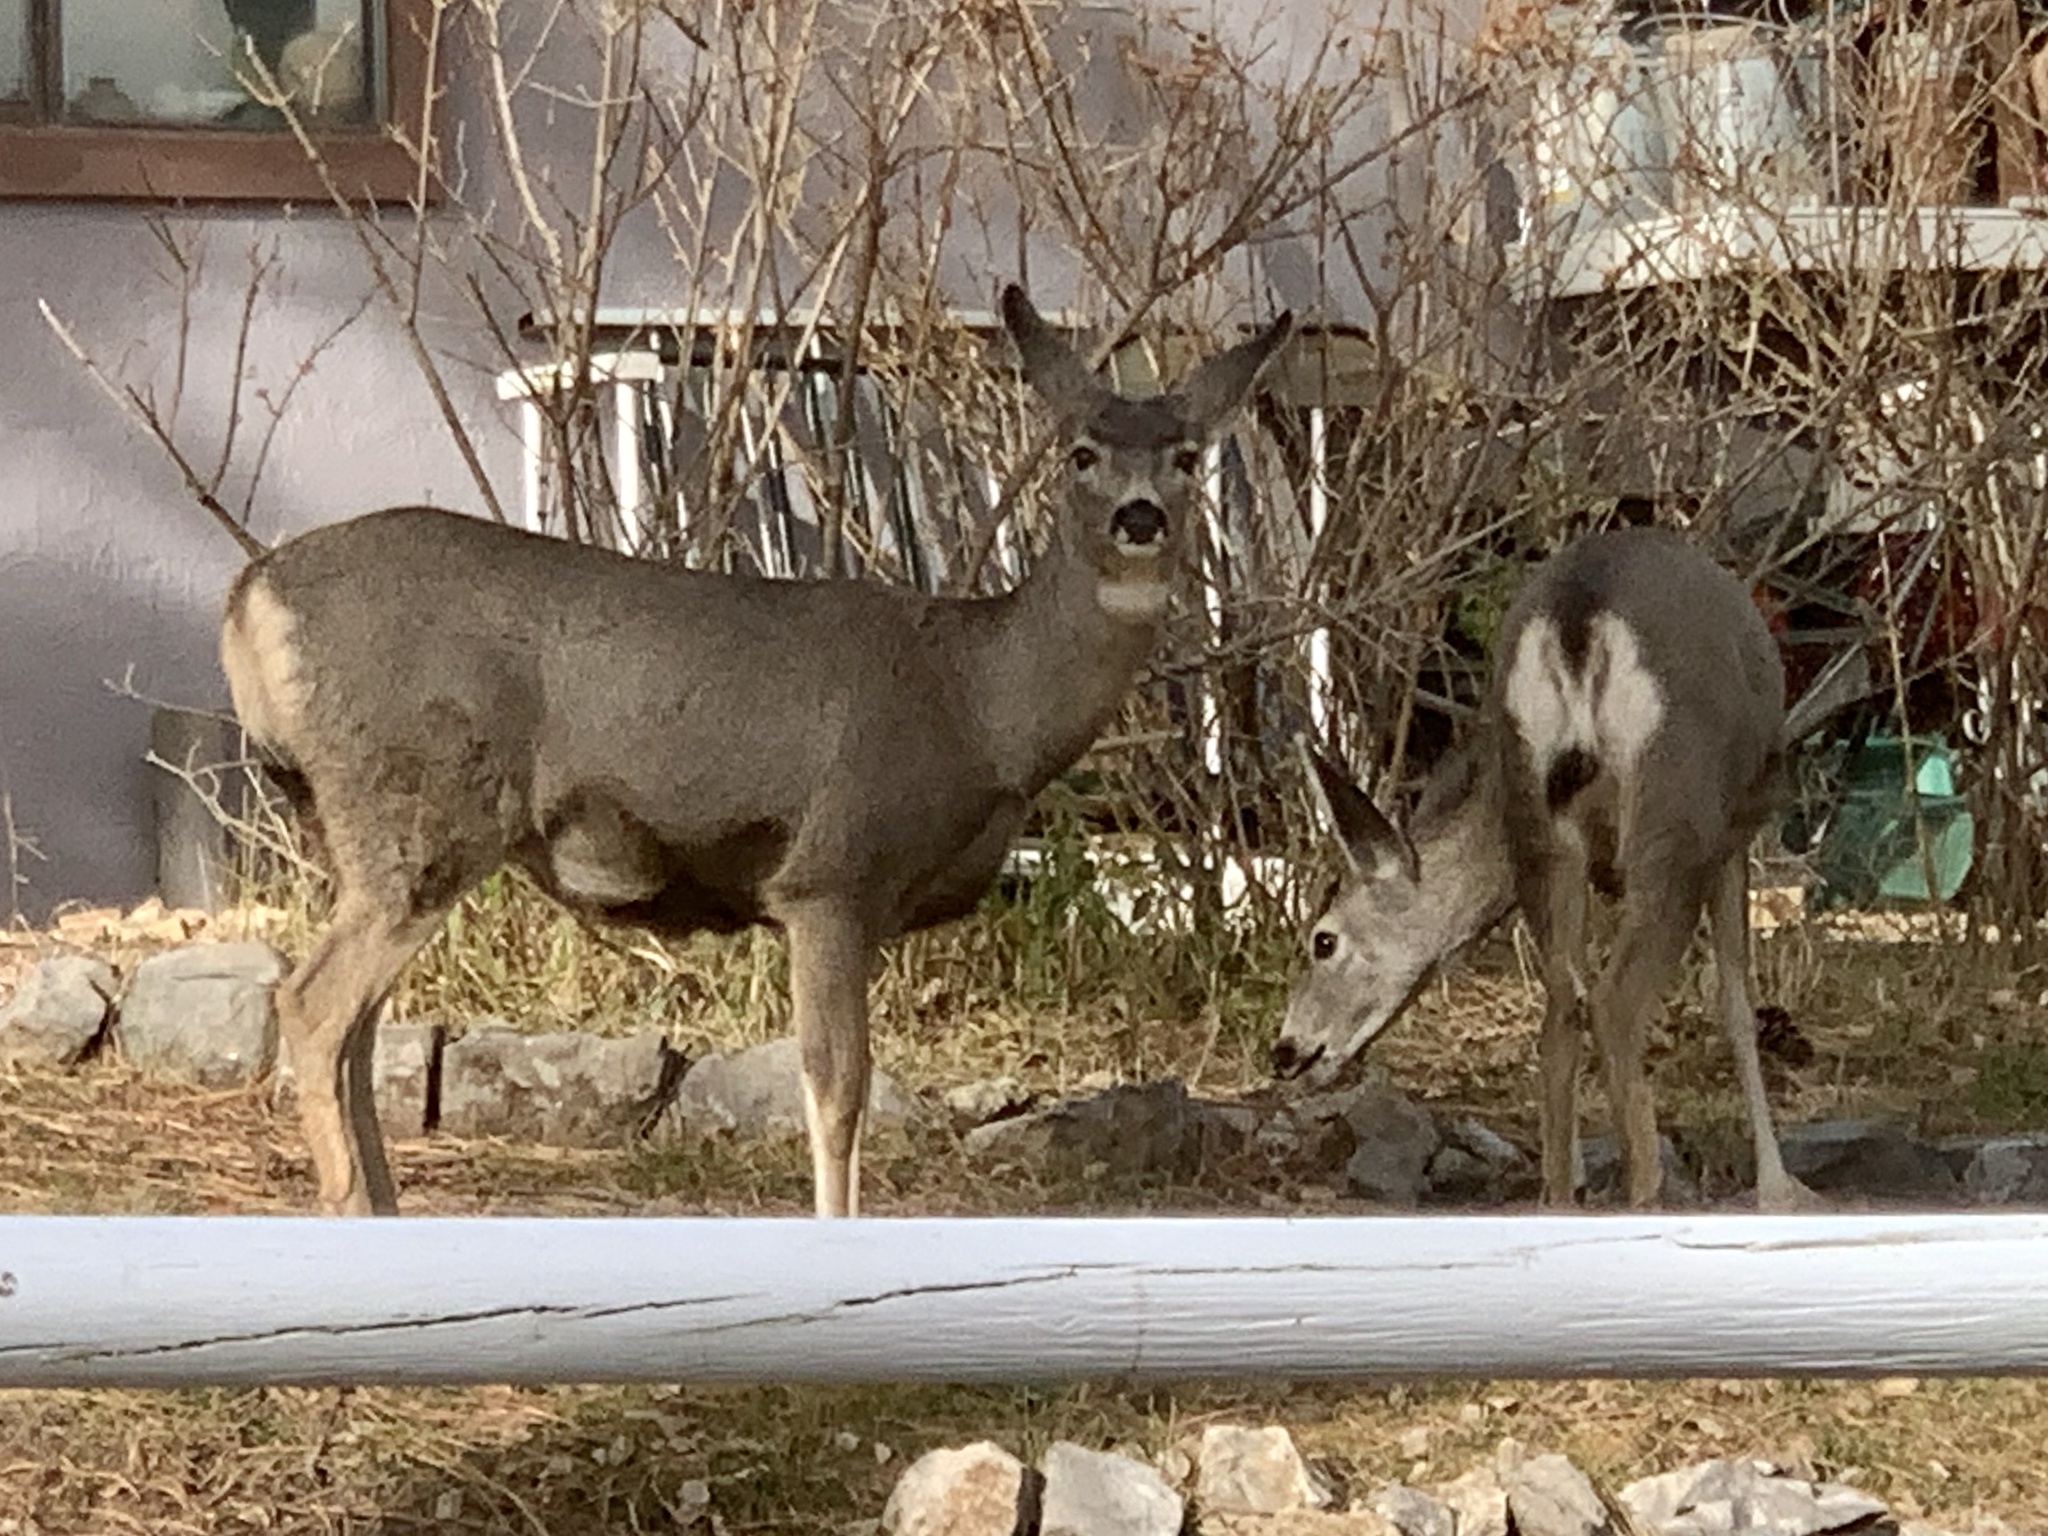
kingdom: Animalia
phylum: Chordata
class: Mammalia
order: Artiodactyla
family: Cervidae
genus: Odocoileus
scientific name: Odocoileus hemionus
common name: Mule deer
